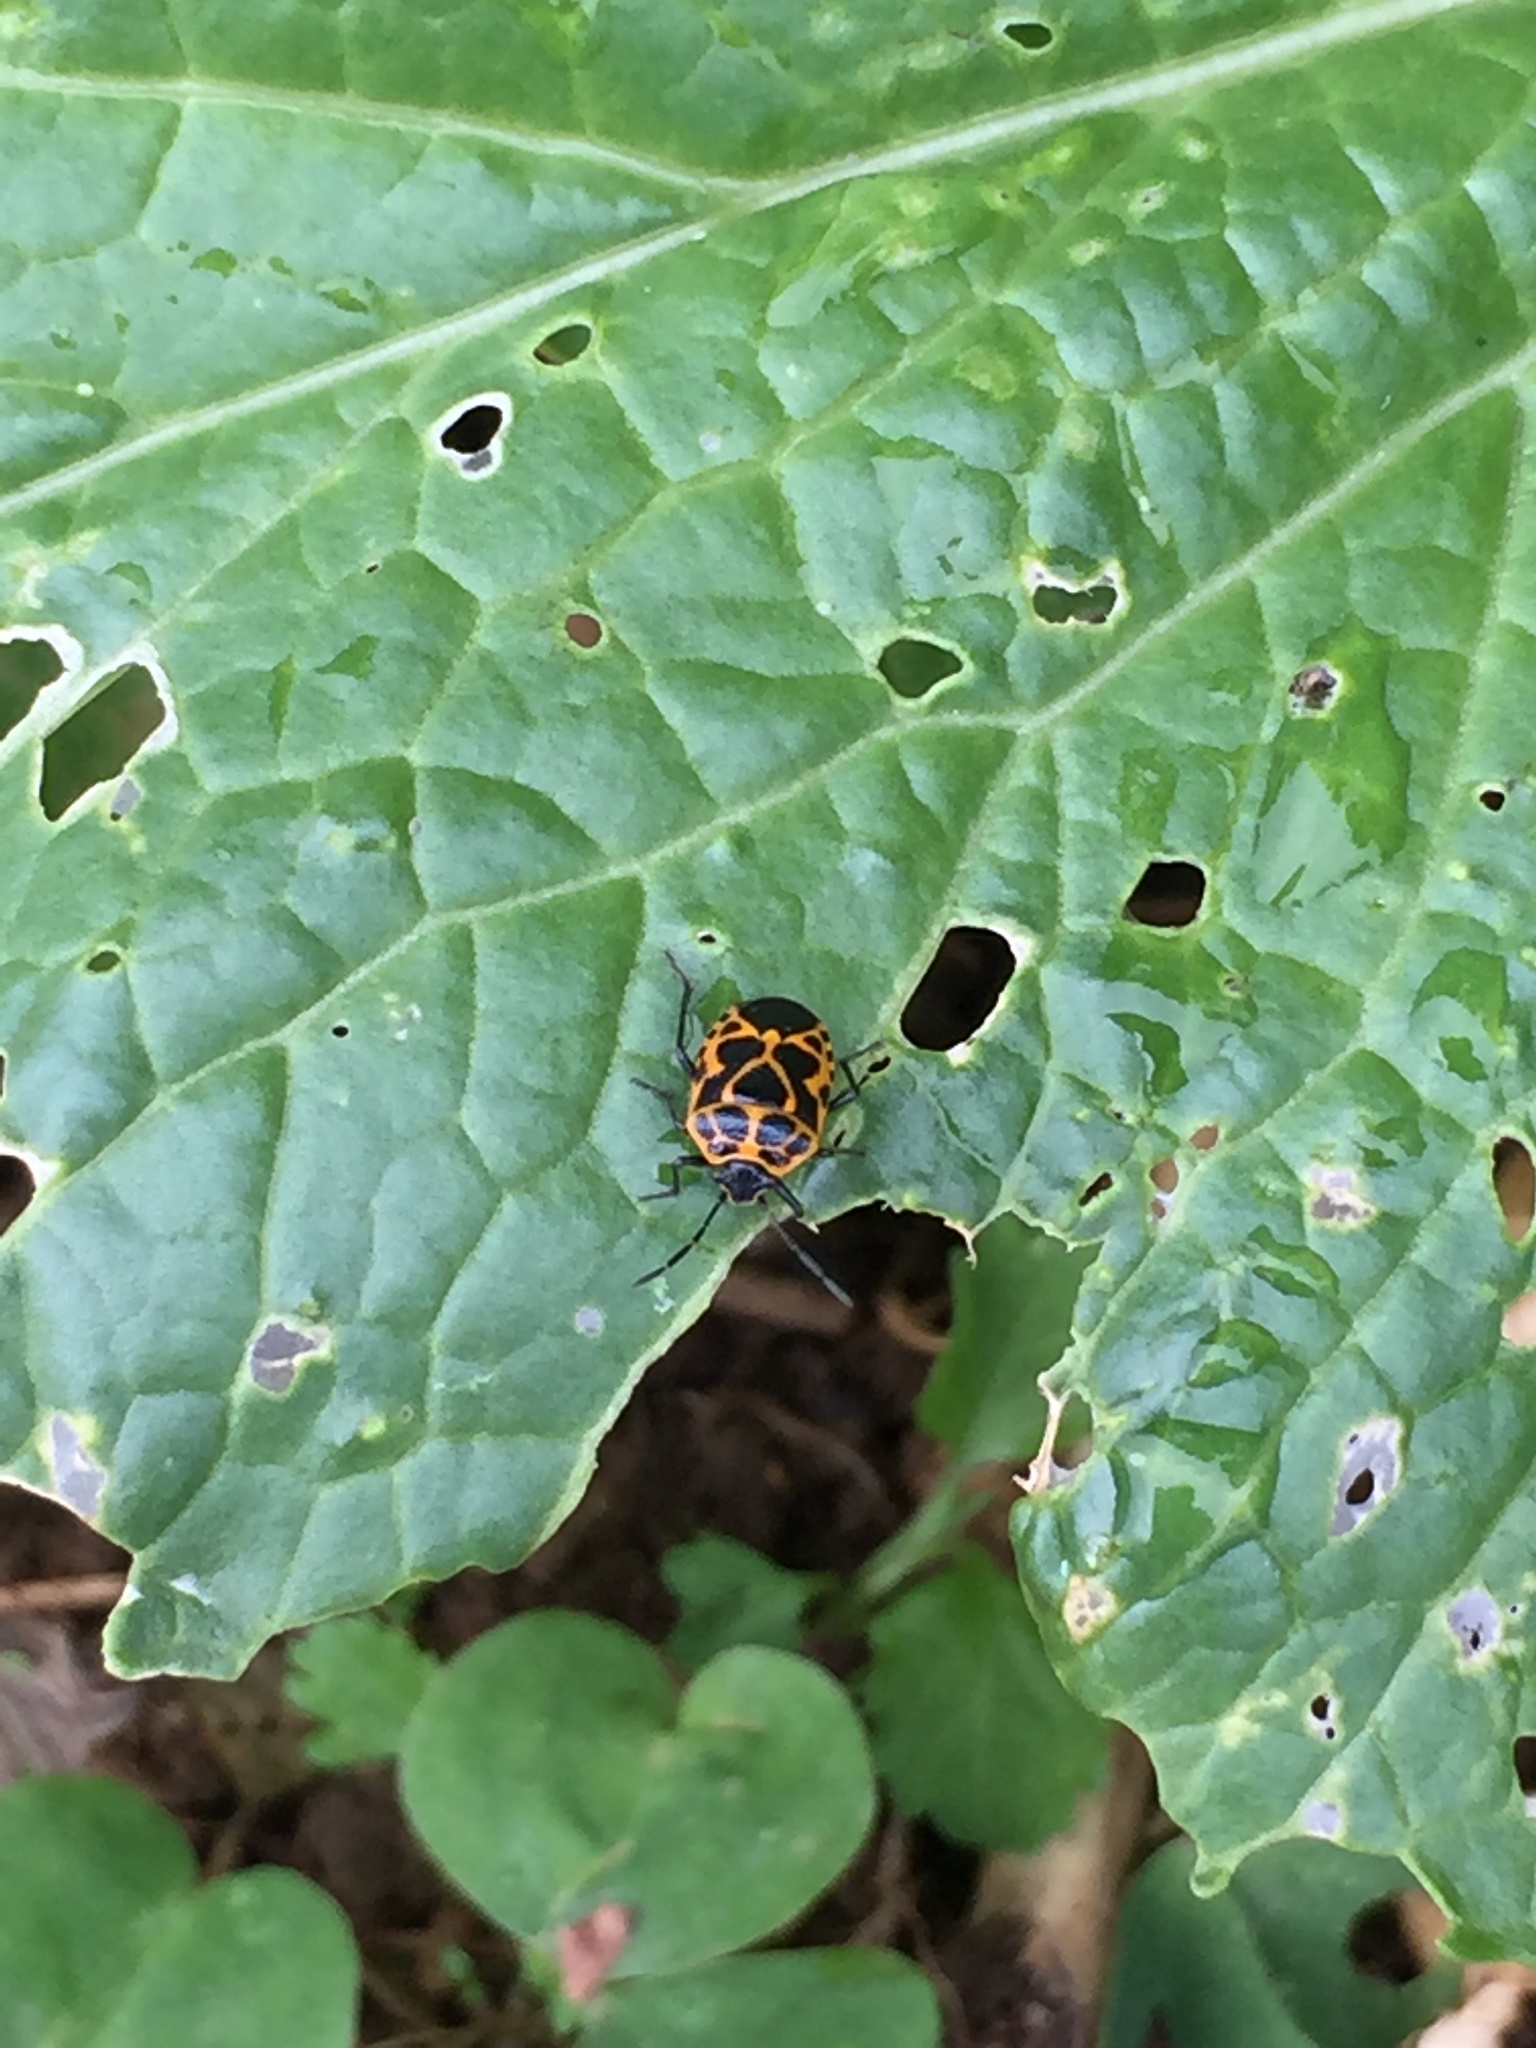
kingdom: Animalia
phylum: Arthropoda
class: Insecta
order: Hemiptera
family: Pentatomidae
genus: Eurydema
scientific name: Eurydema dominulus
